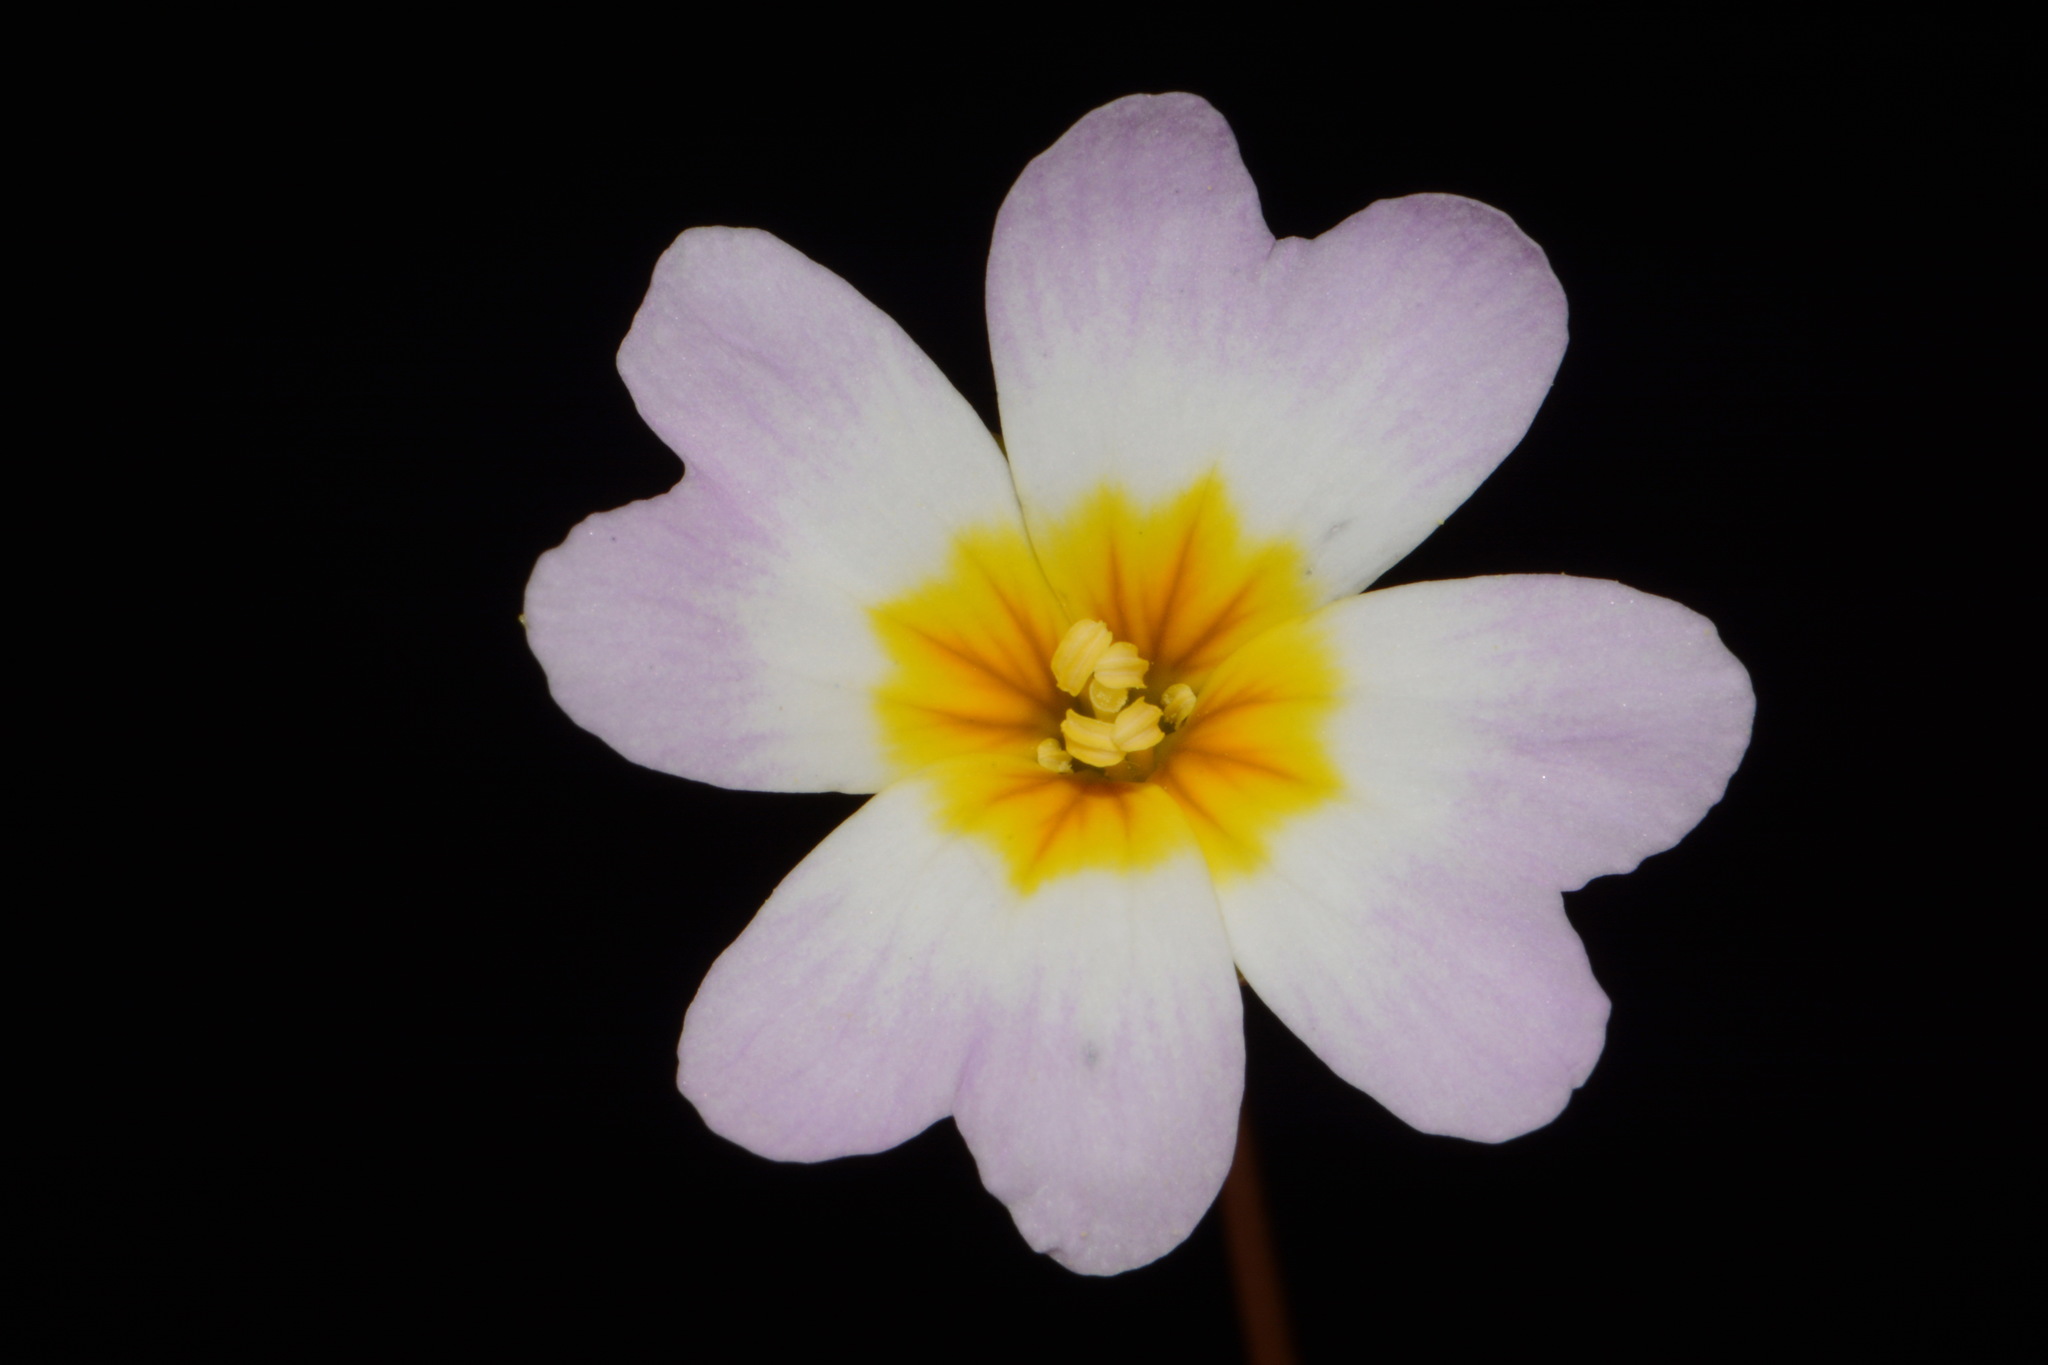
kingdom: Plantae
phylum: Tracheophyta
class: Magnoliopsida
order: Brassicales
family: Brassicaceae
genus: Leavenworthia
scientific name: Leavenworthia stylosa
